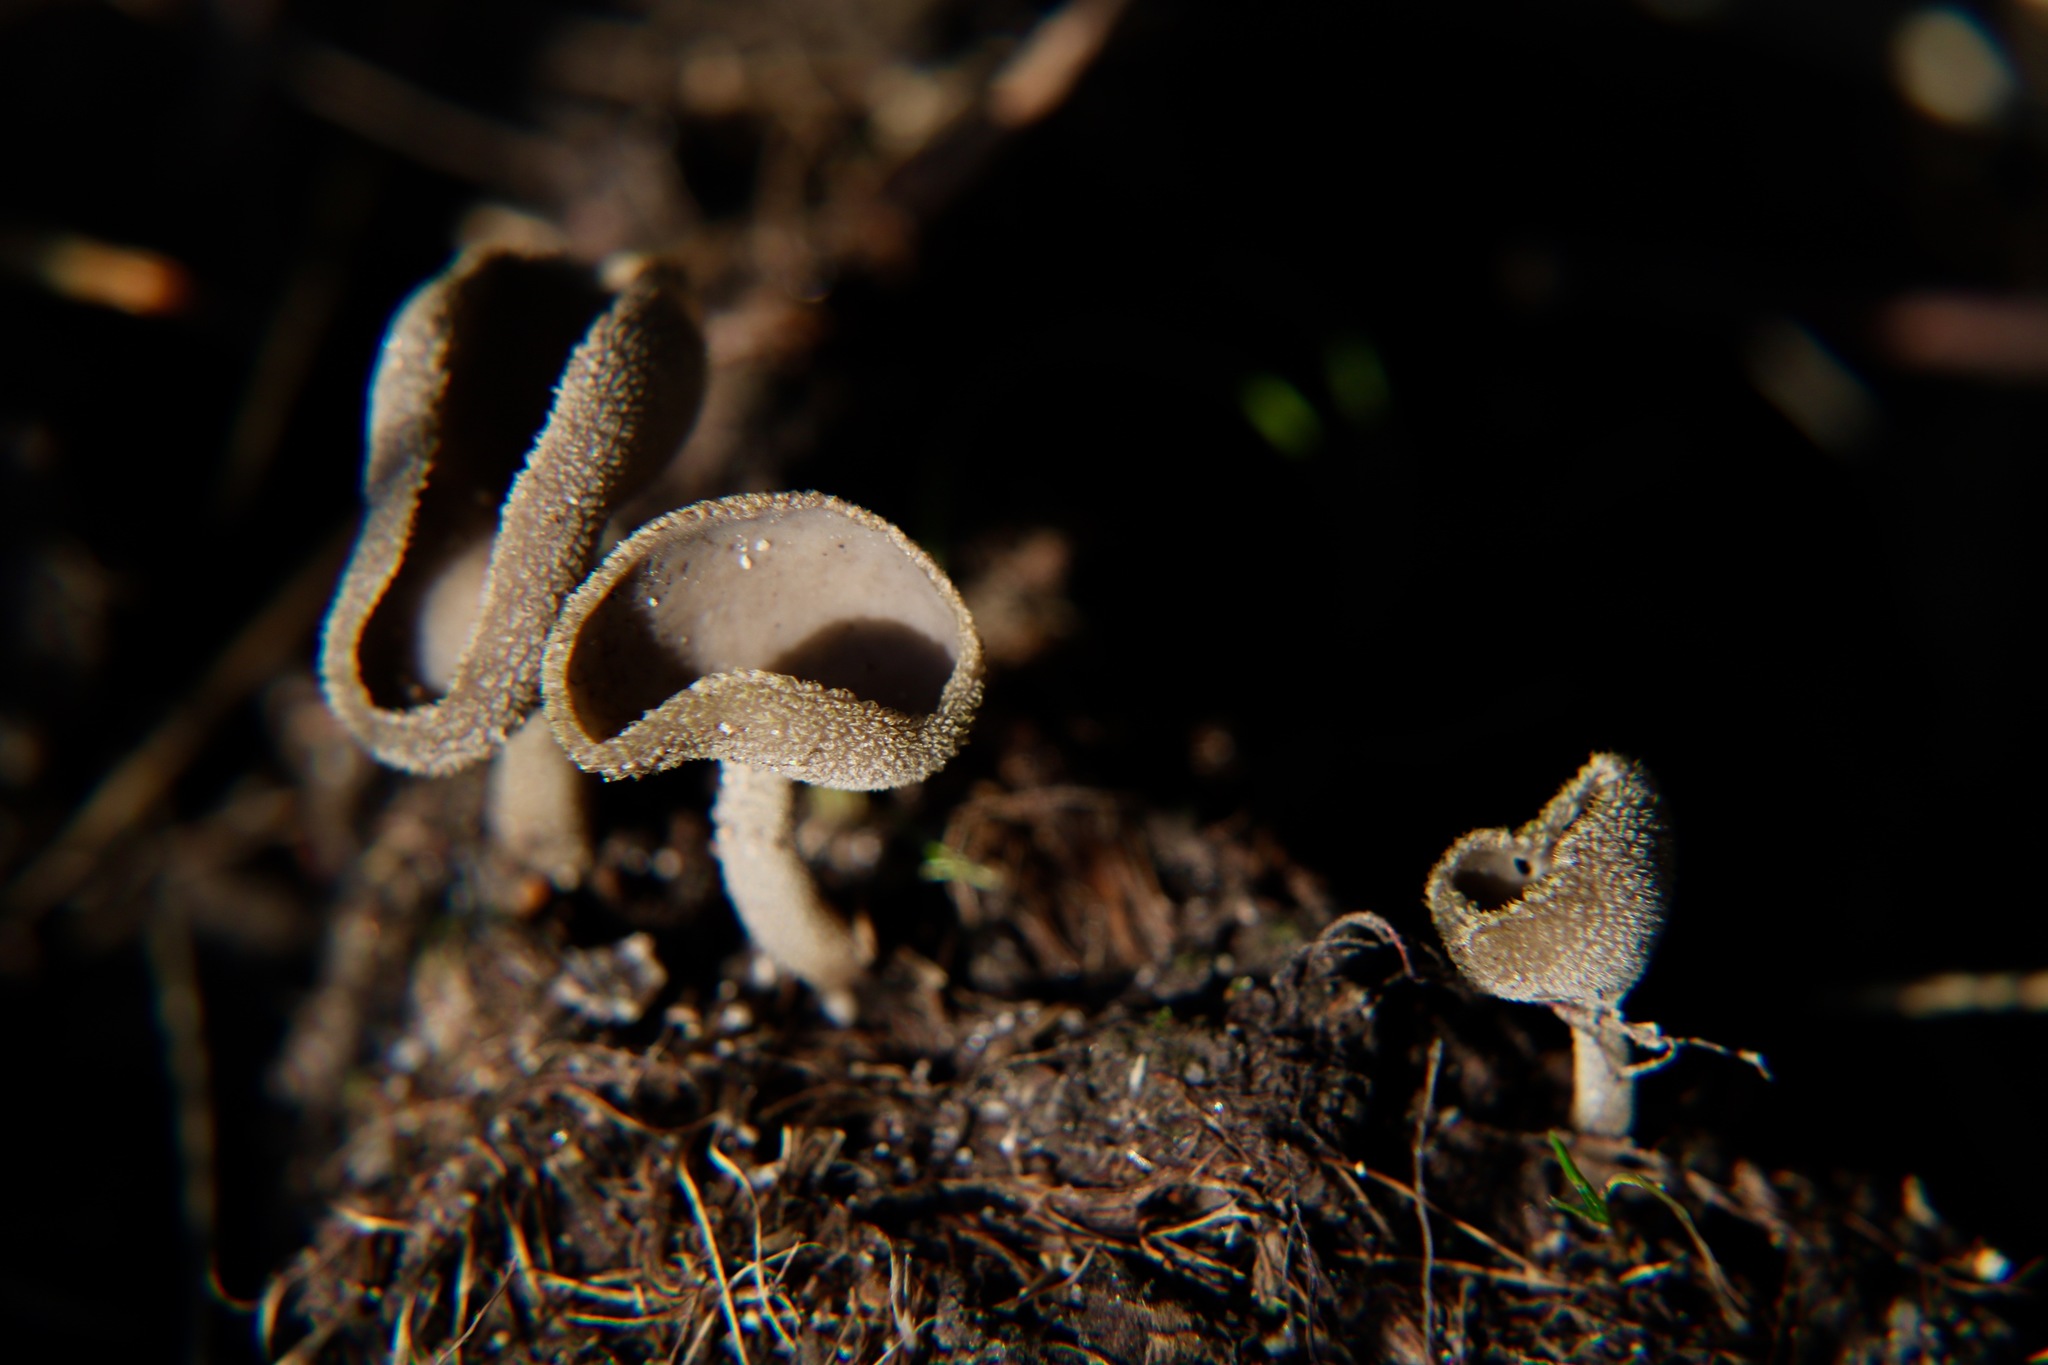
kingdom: Fungi
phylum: Ascomycota
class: Pezizomycetes
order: Pezizales
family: Helvellaceae
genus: Helvella
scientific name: Helvella macropus
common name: Felt saddle
